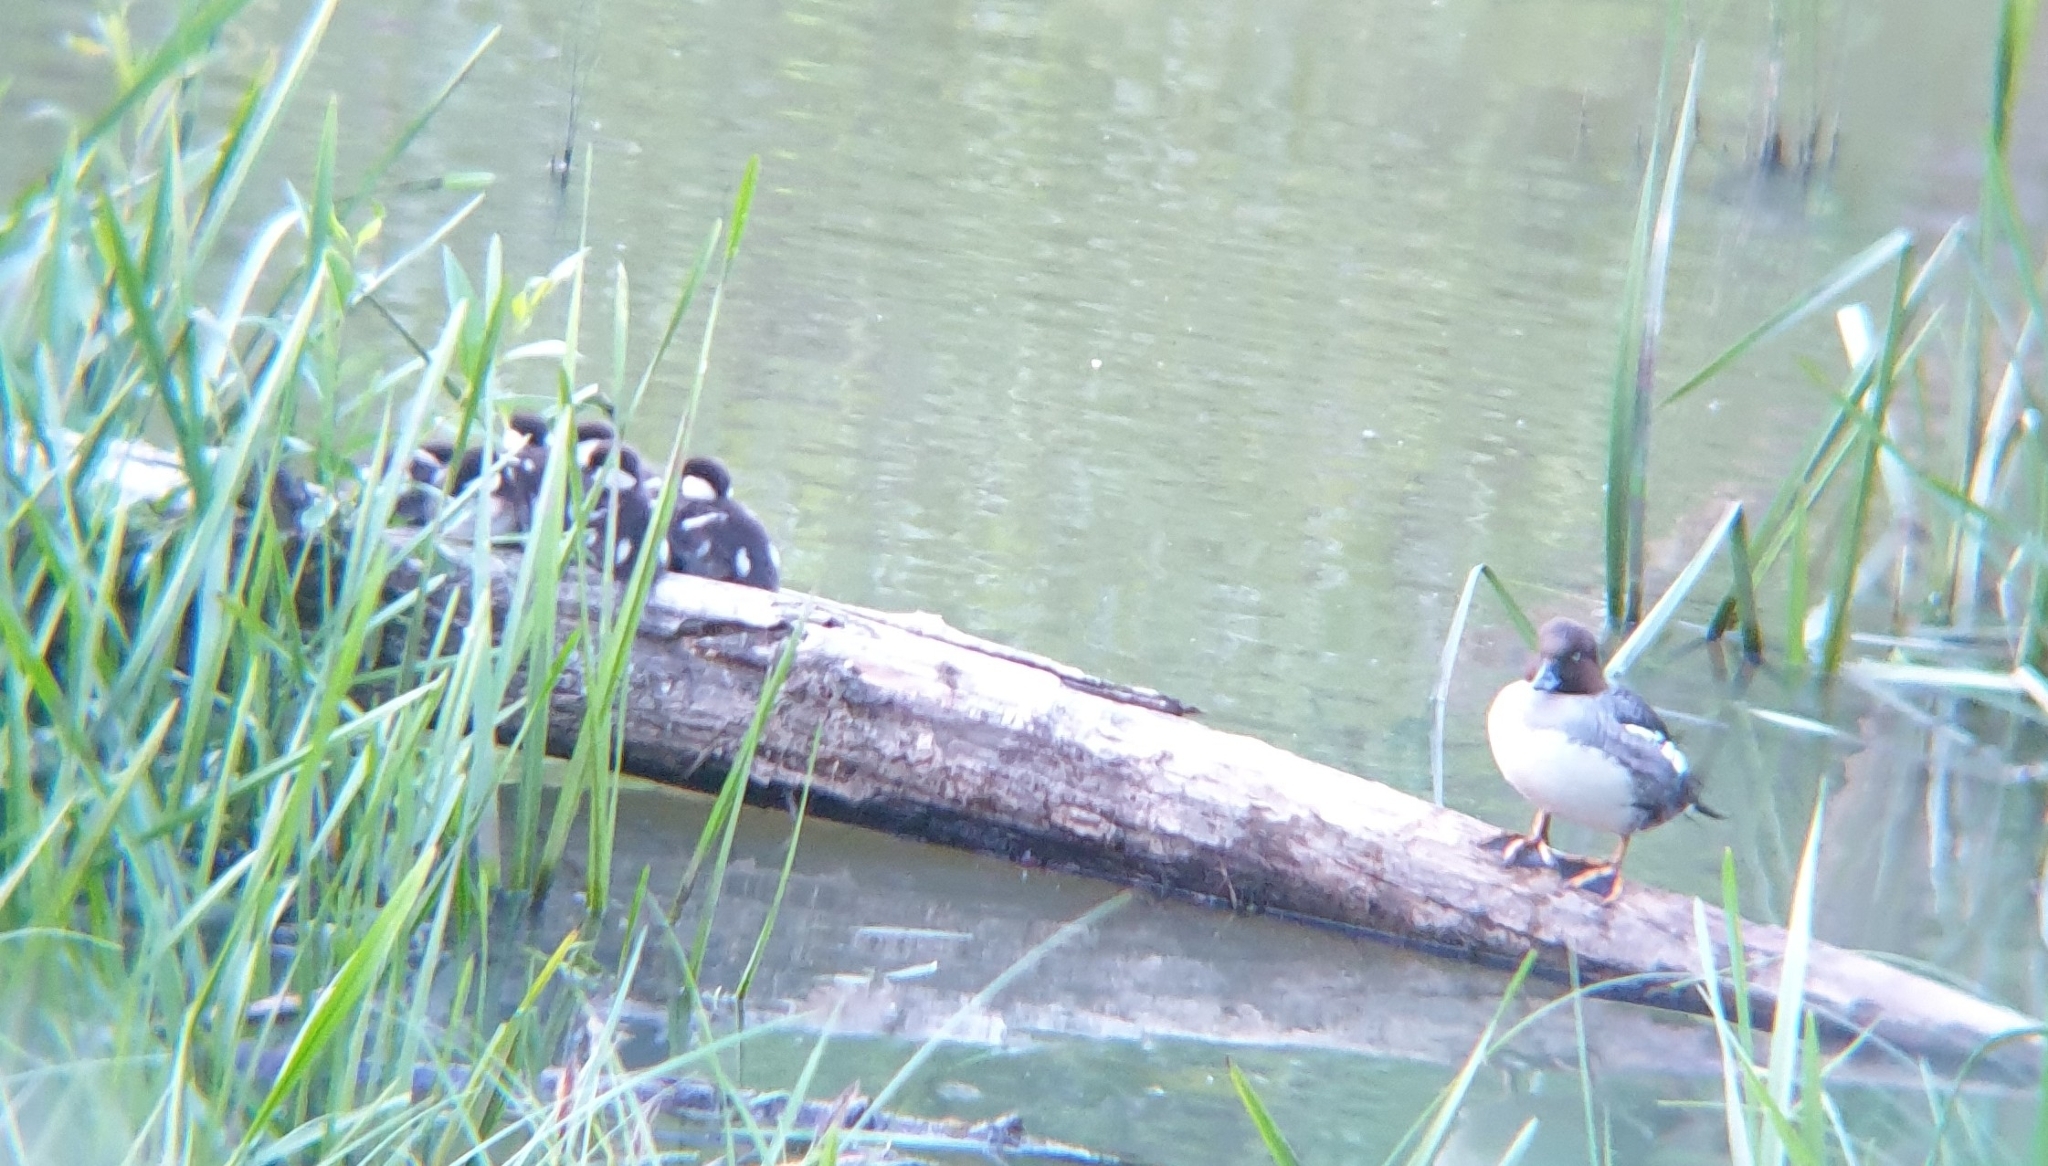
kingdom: Animalia
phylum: Chordata
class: Aves
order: Anseriformes
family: Anatidae
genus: Bucephala
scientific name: Bucephala clangula
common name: Common goldeneye
